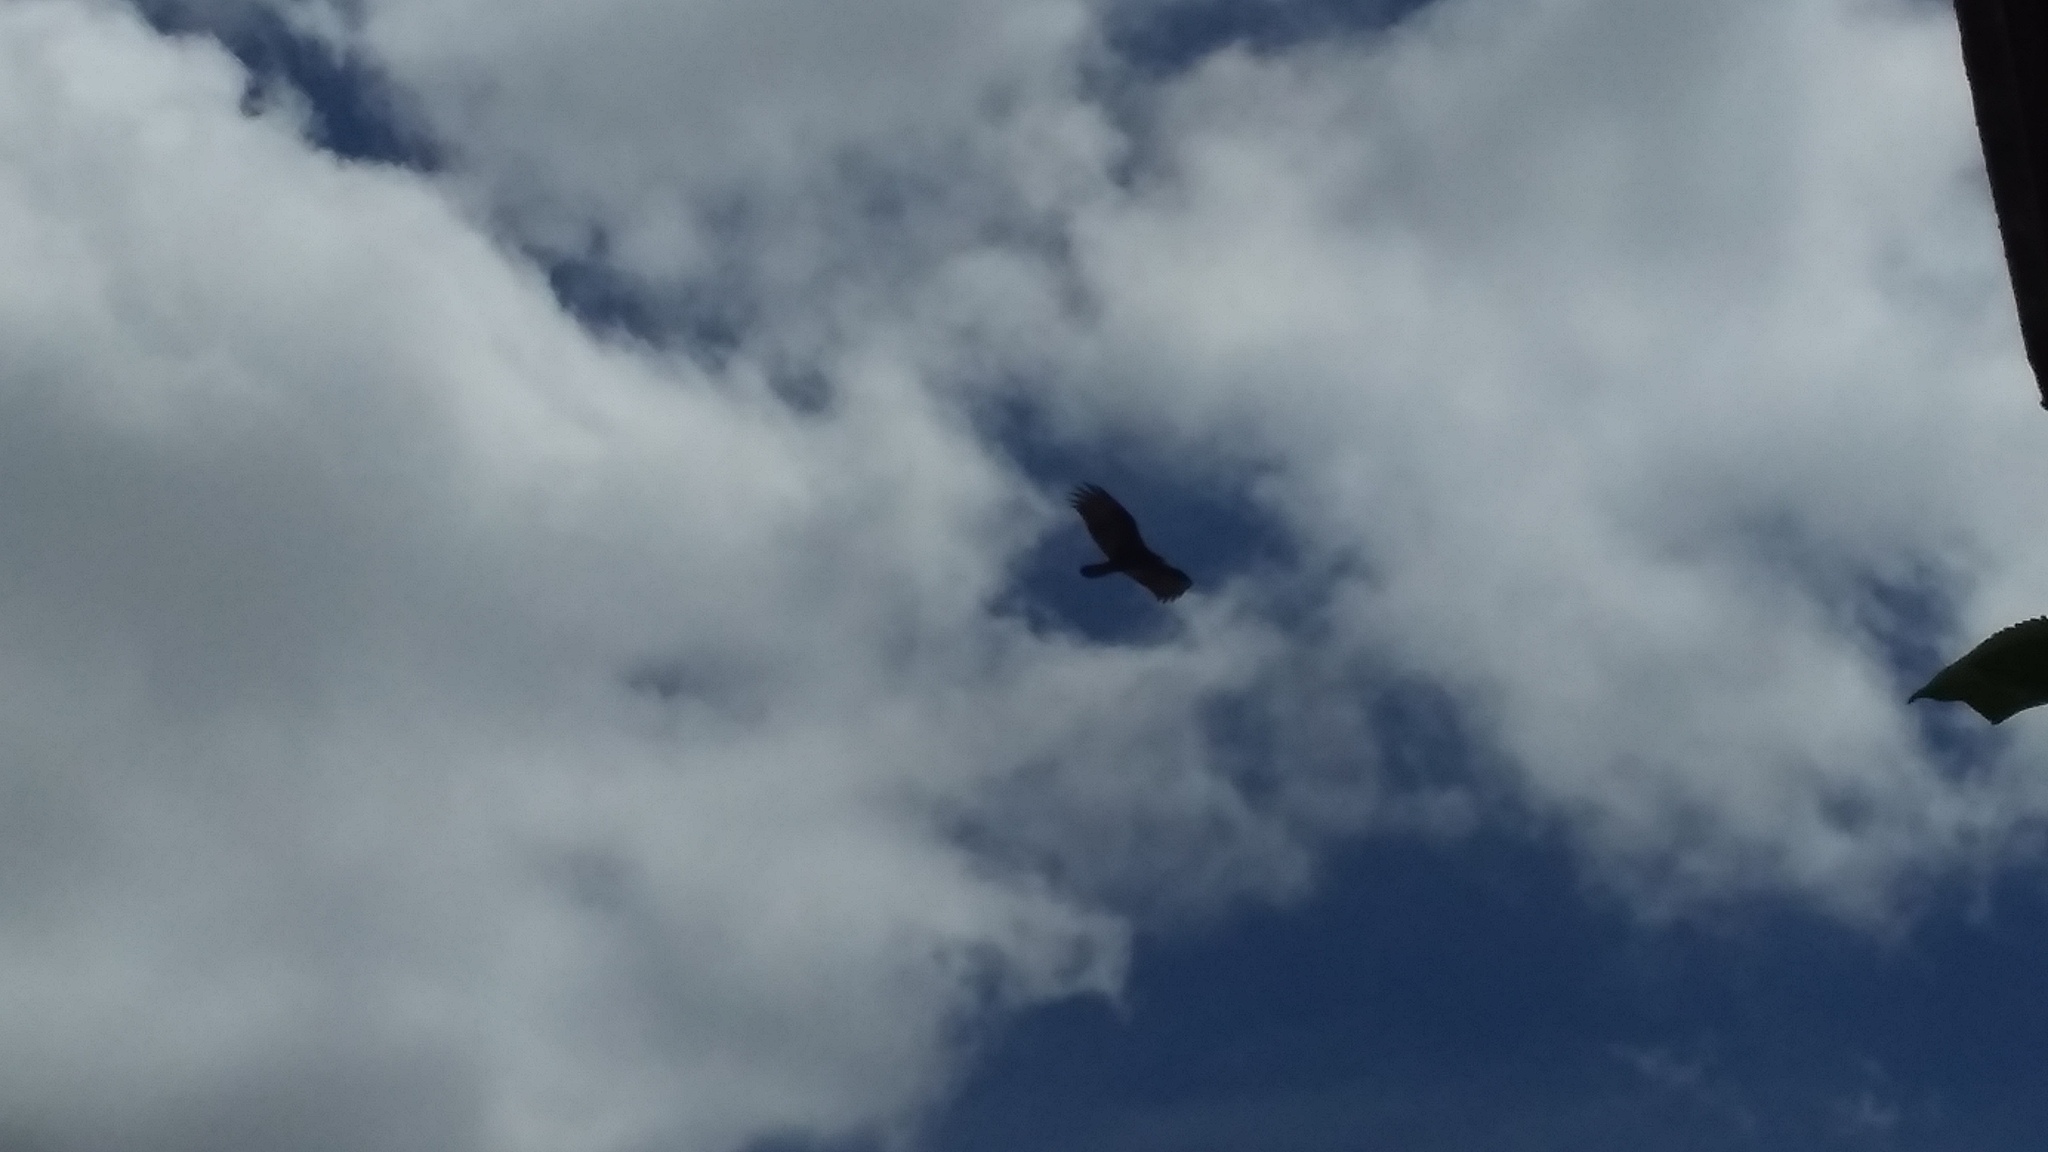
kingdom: Animalia
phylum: Chordata
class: Aves
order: Accipitriformes
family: Cathartidae
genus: Cathartes
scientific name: Cathartes aura
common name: Turkey vulture
